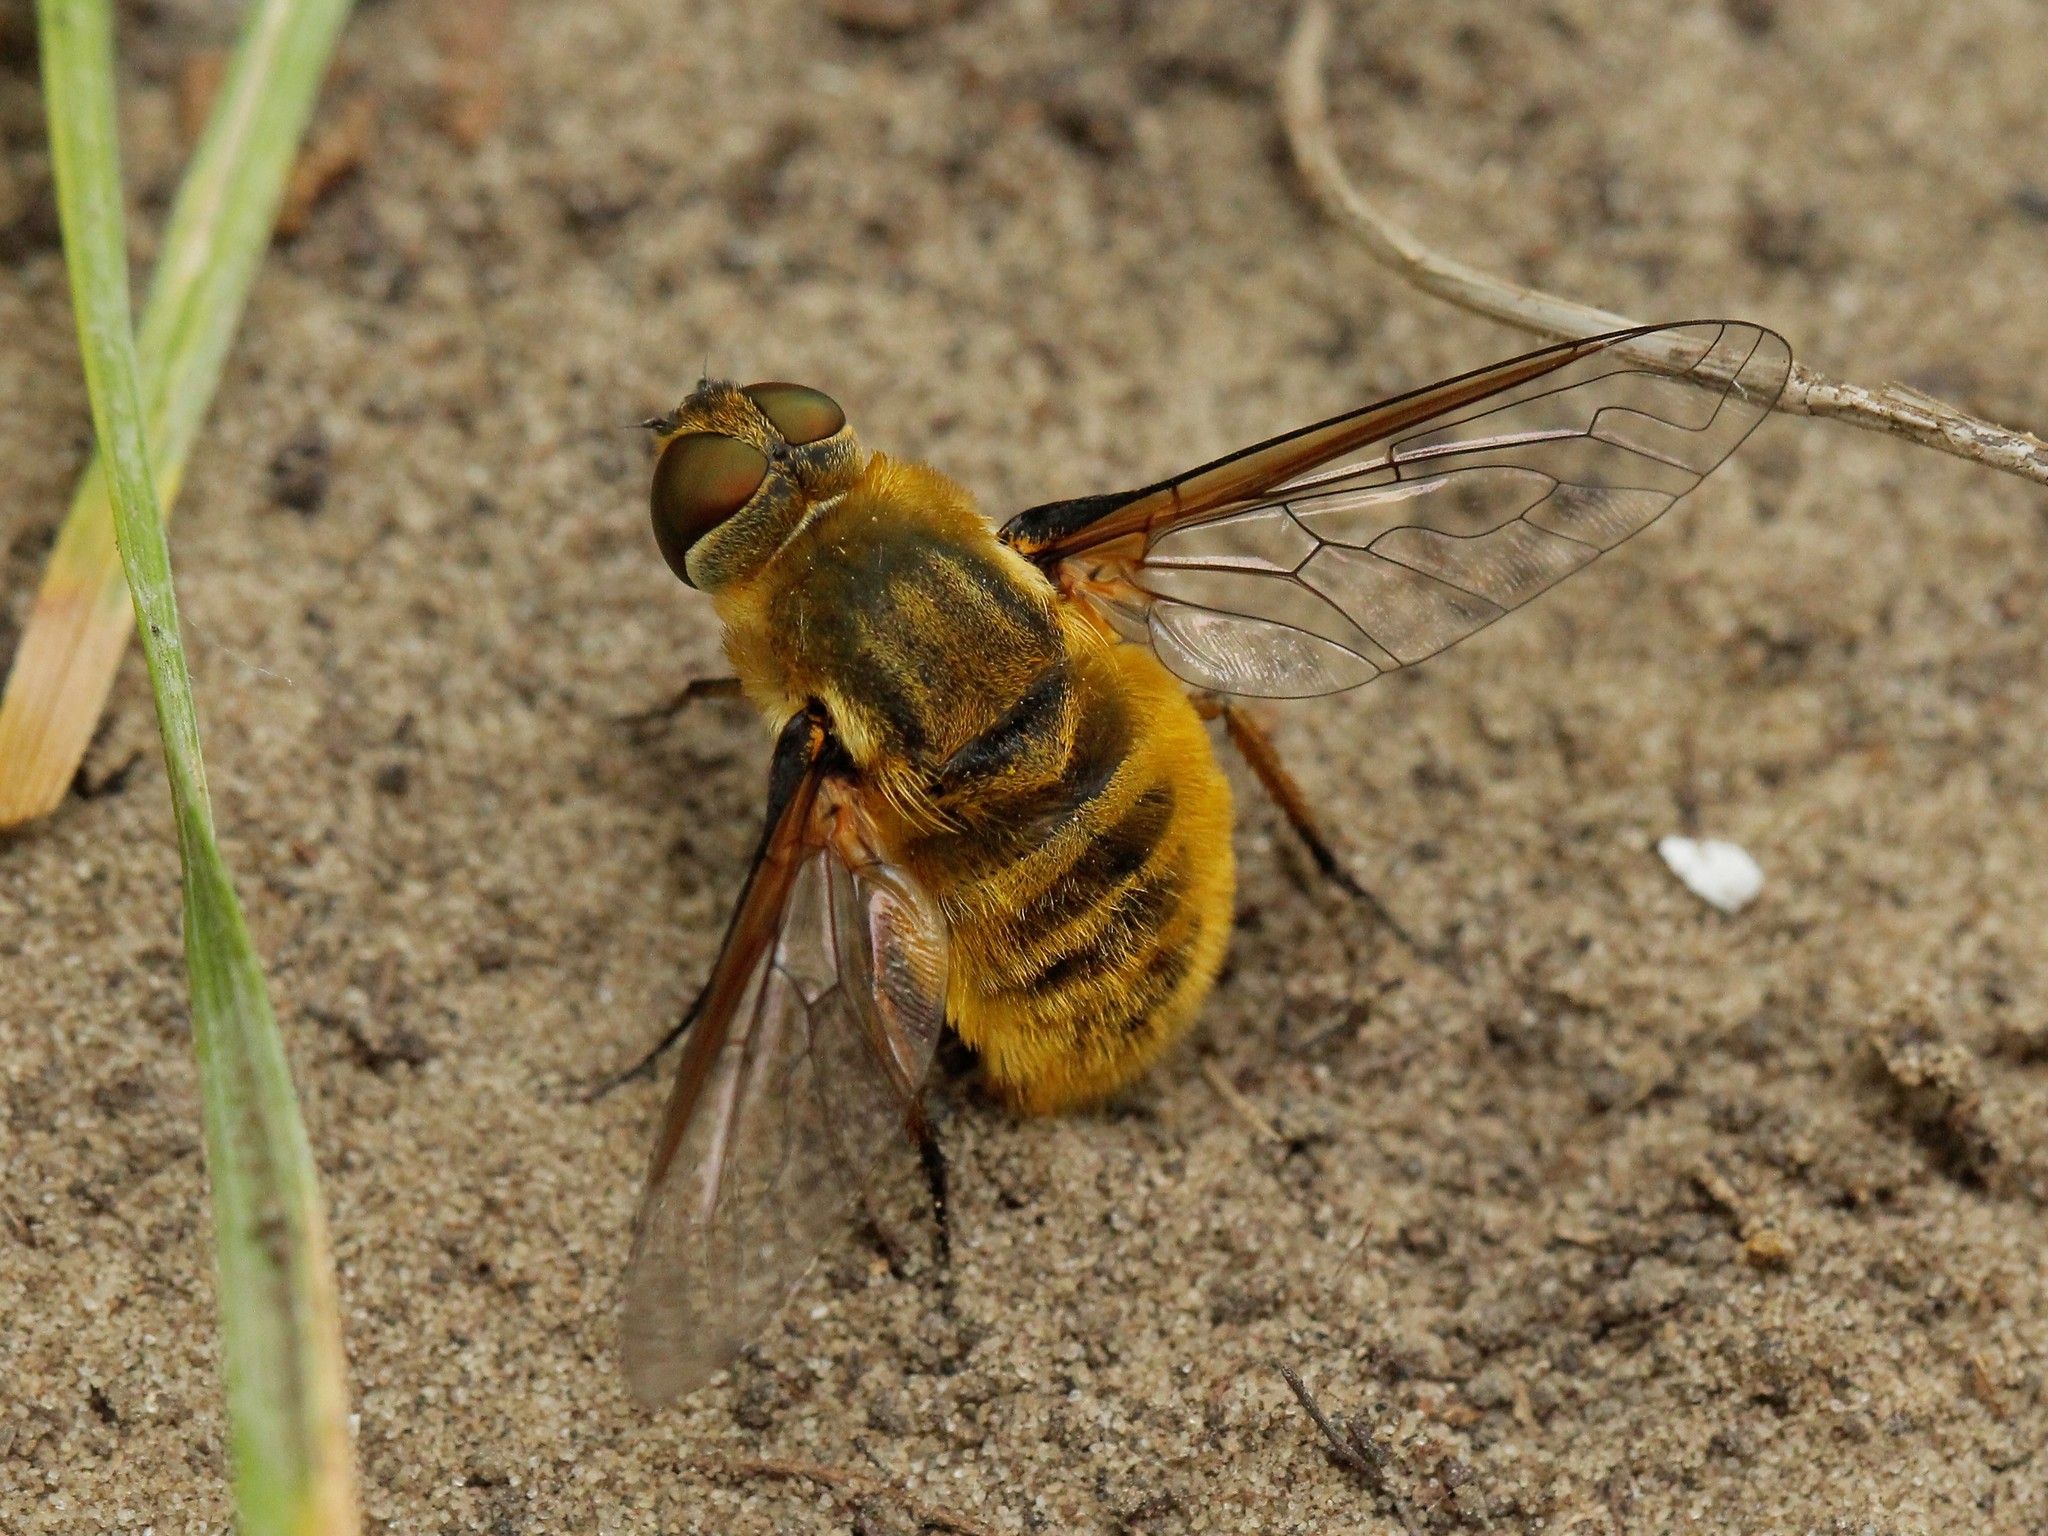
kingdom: Animalia
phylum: Arthropoda
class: Insecta
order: Diptera
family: Bombyliidae
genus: Villa
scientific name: Villa hottentotta
